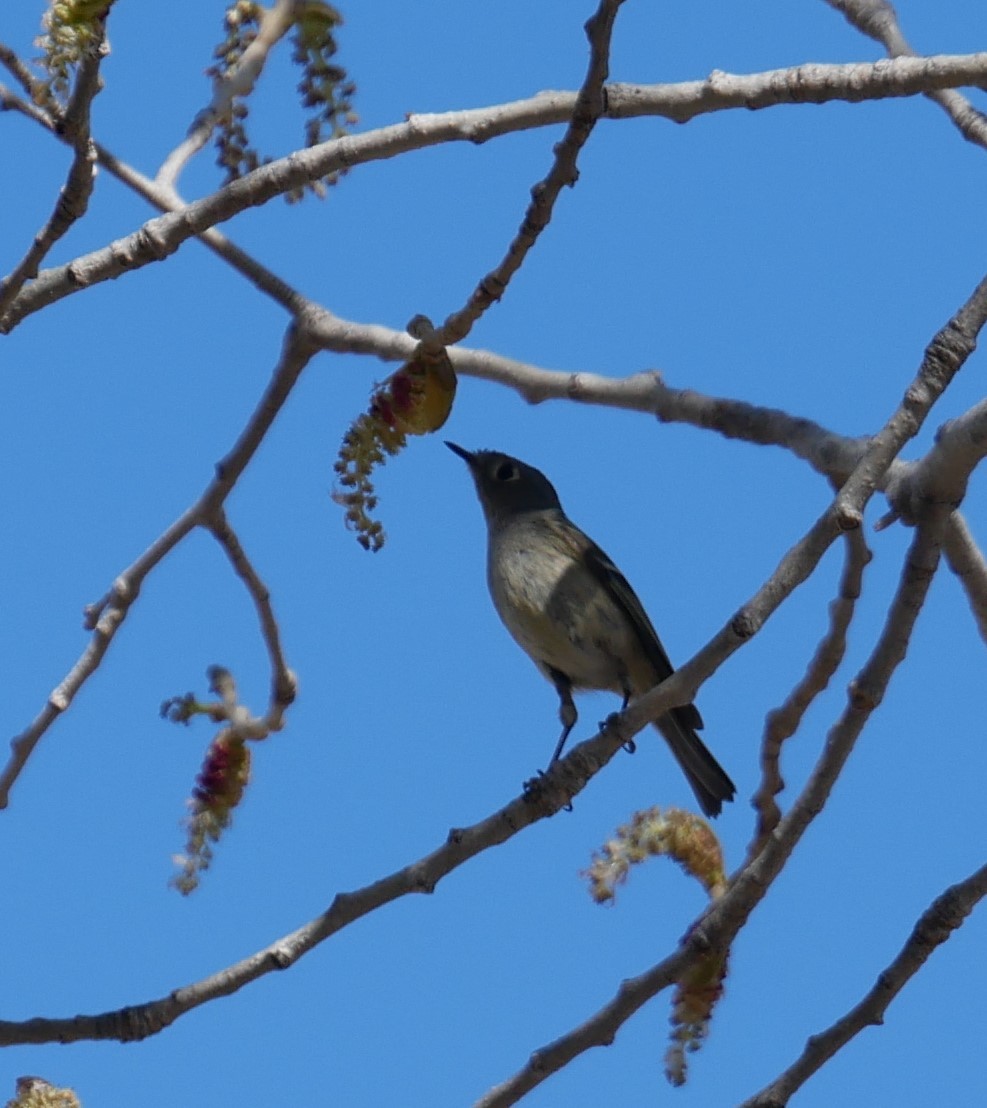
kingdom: Animalia
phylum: Chordata
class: Aves
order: Passeriformes
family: Regulidae
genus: Regulus
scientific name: Regulus calendula
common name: Ruby-crowned kinglet
